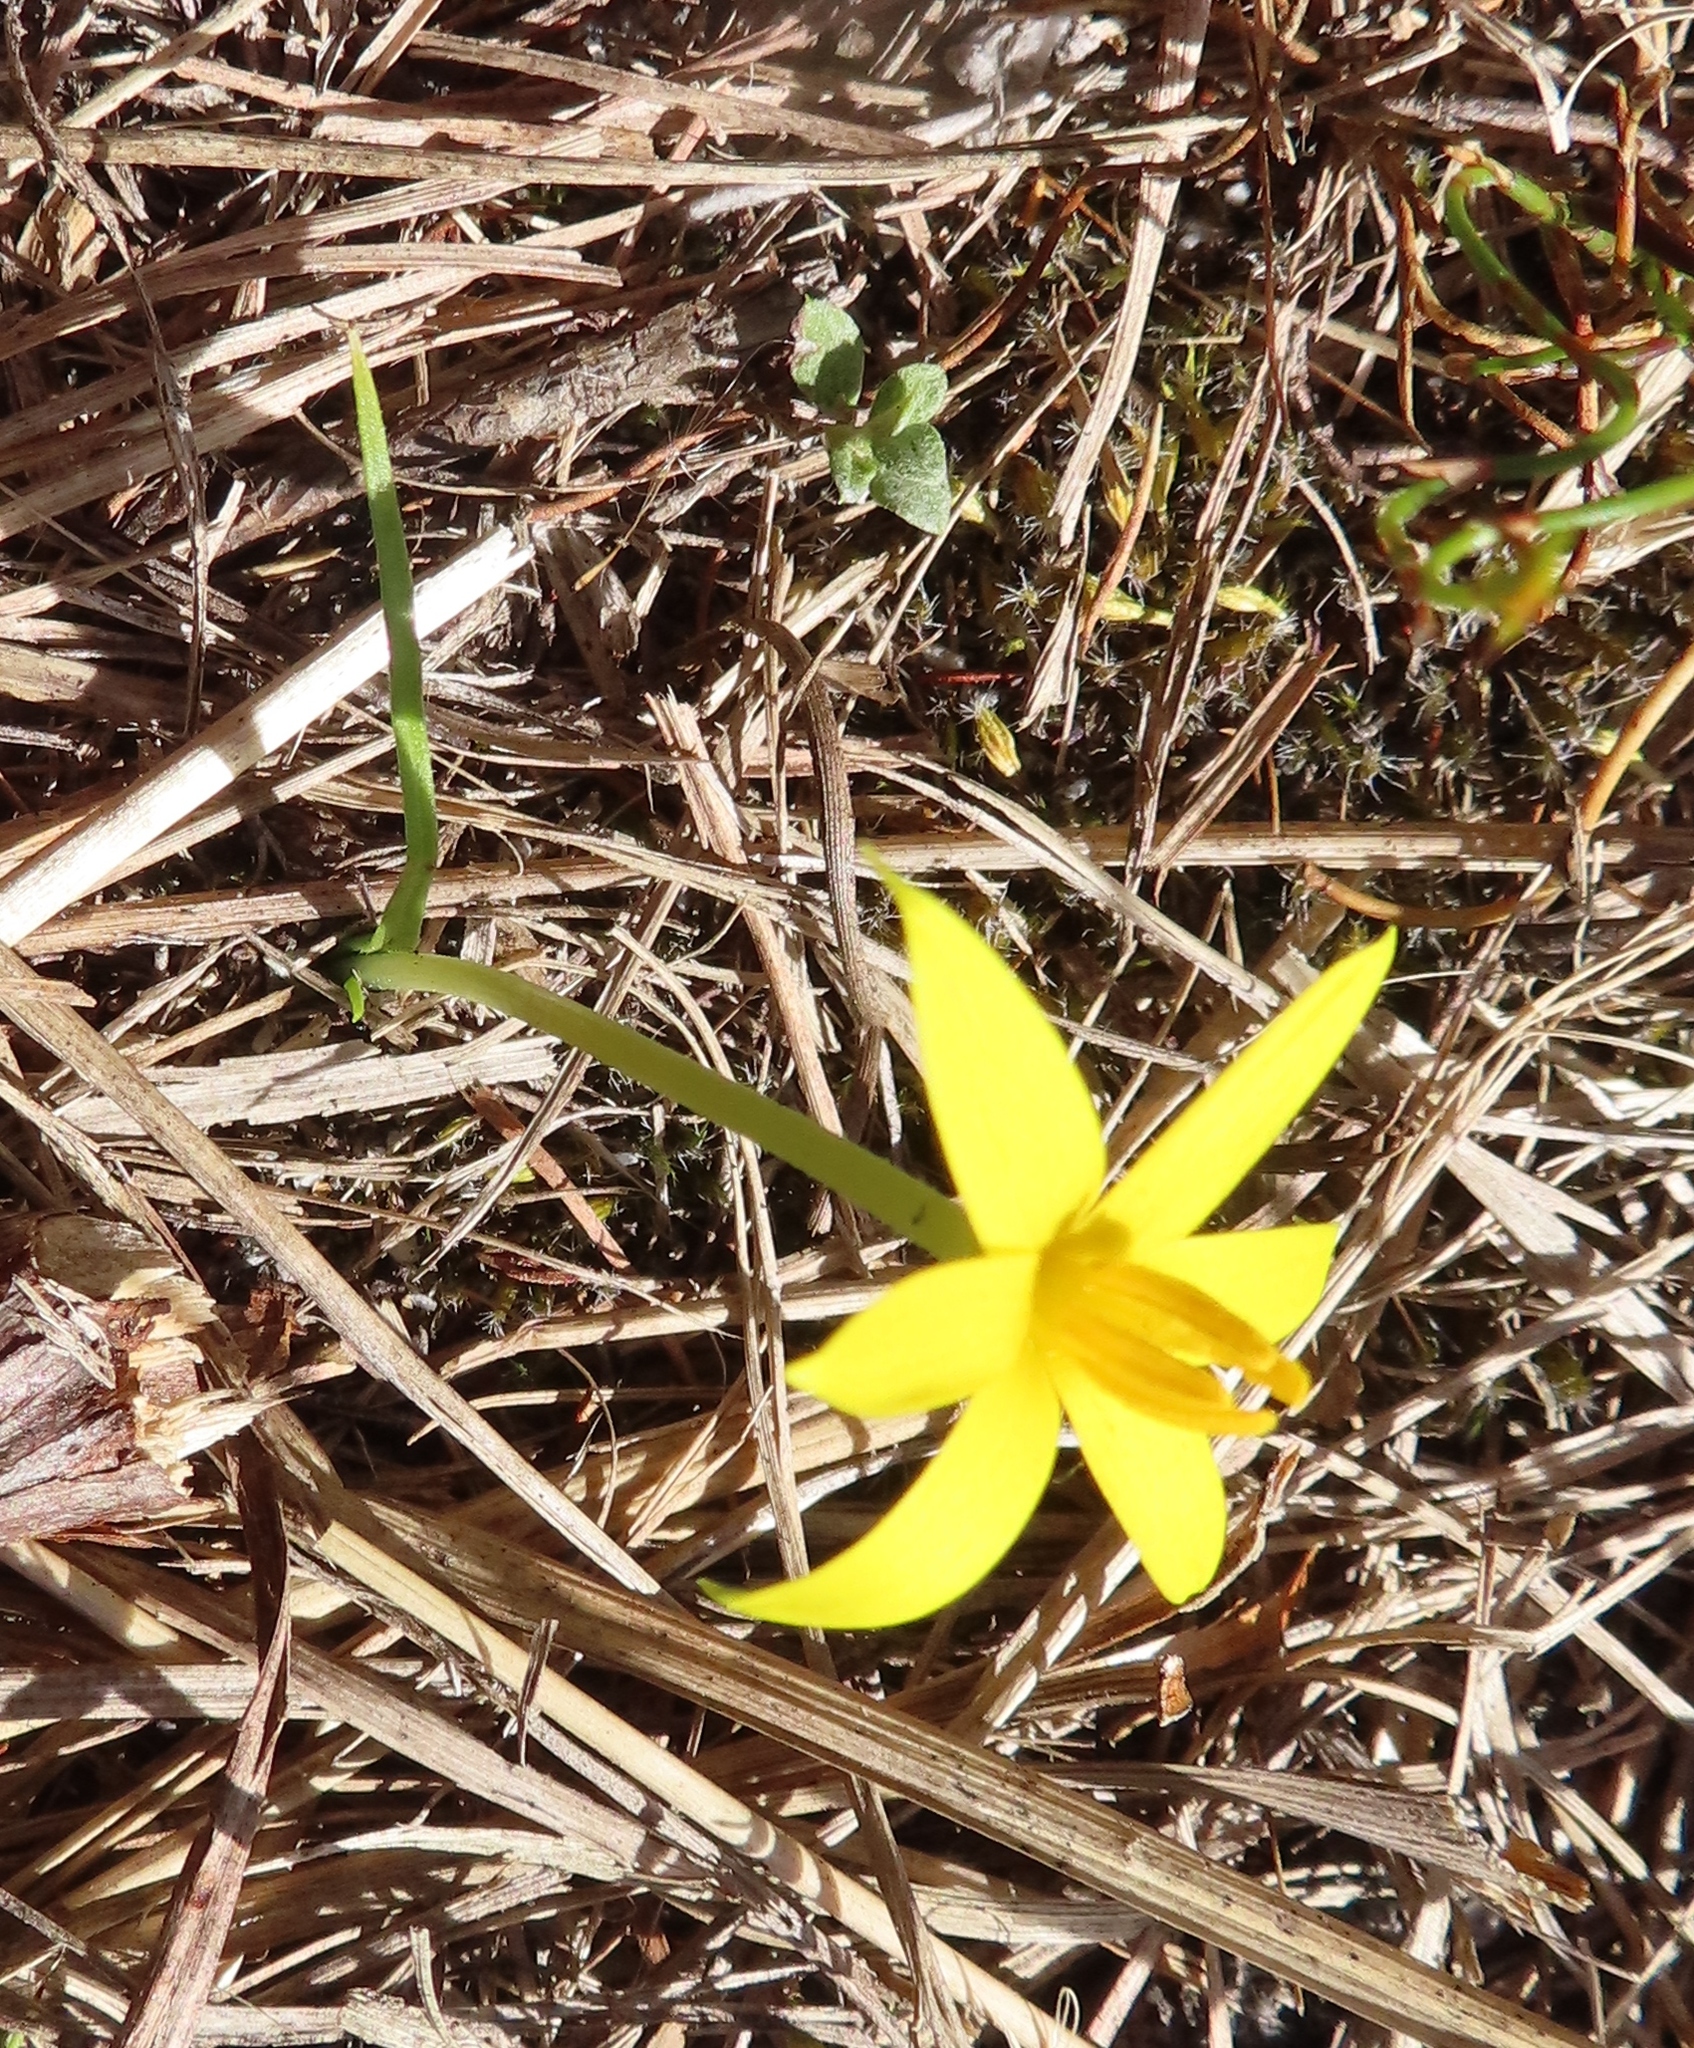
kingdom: Plantae
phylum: Tracheophyta
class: Liliopsida
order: Asparagales
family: Hypoxidaceae
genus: Empodium
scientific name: Empodium plicatum
